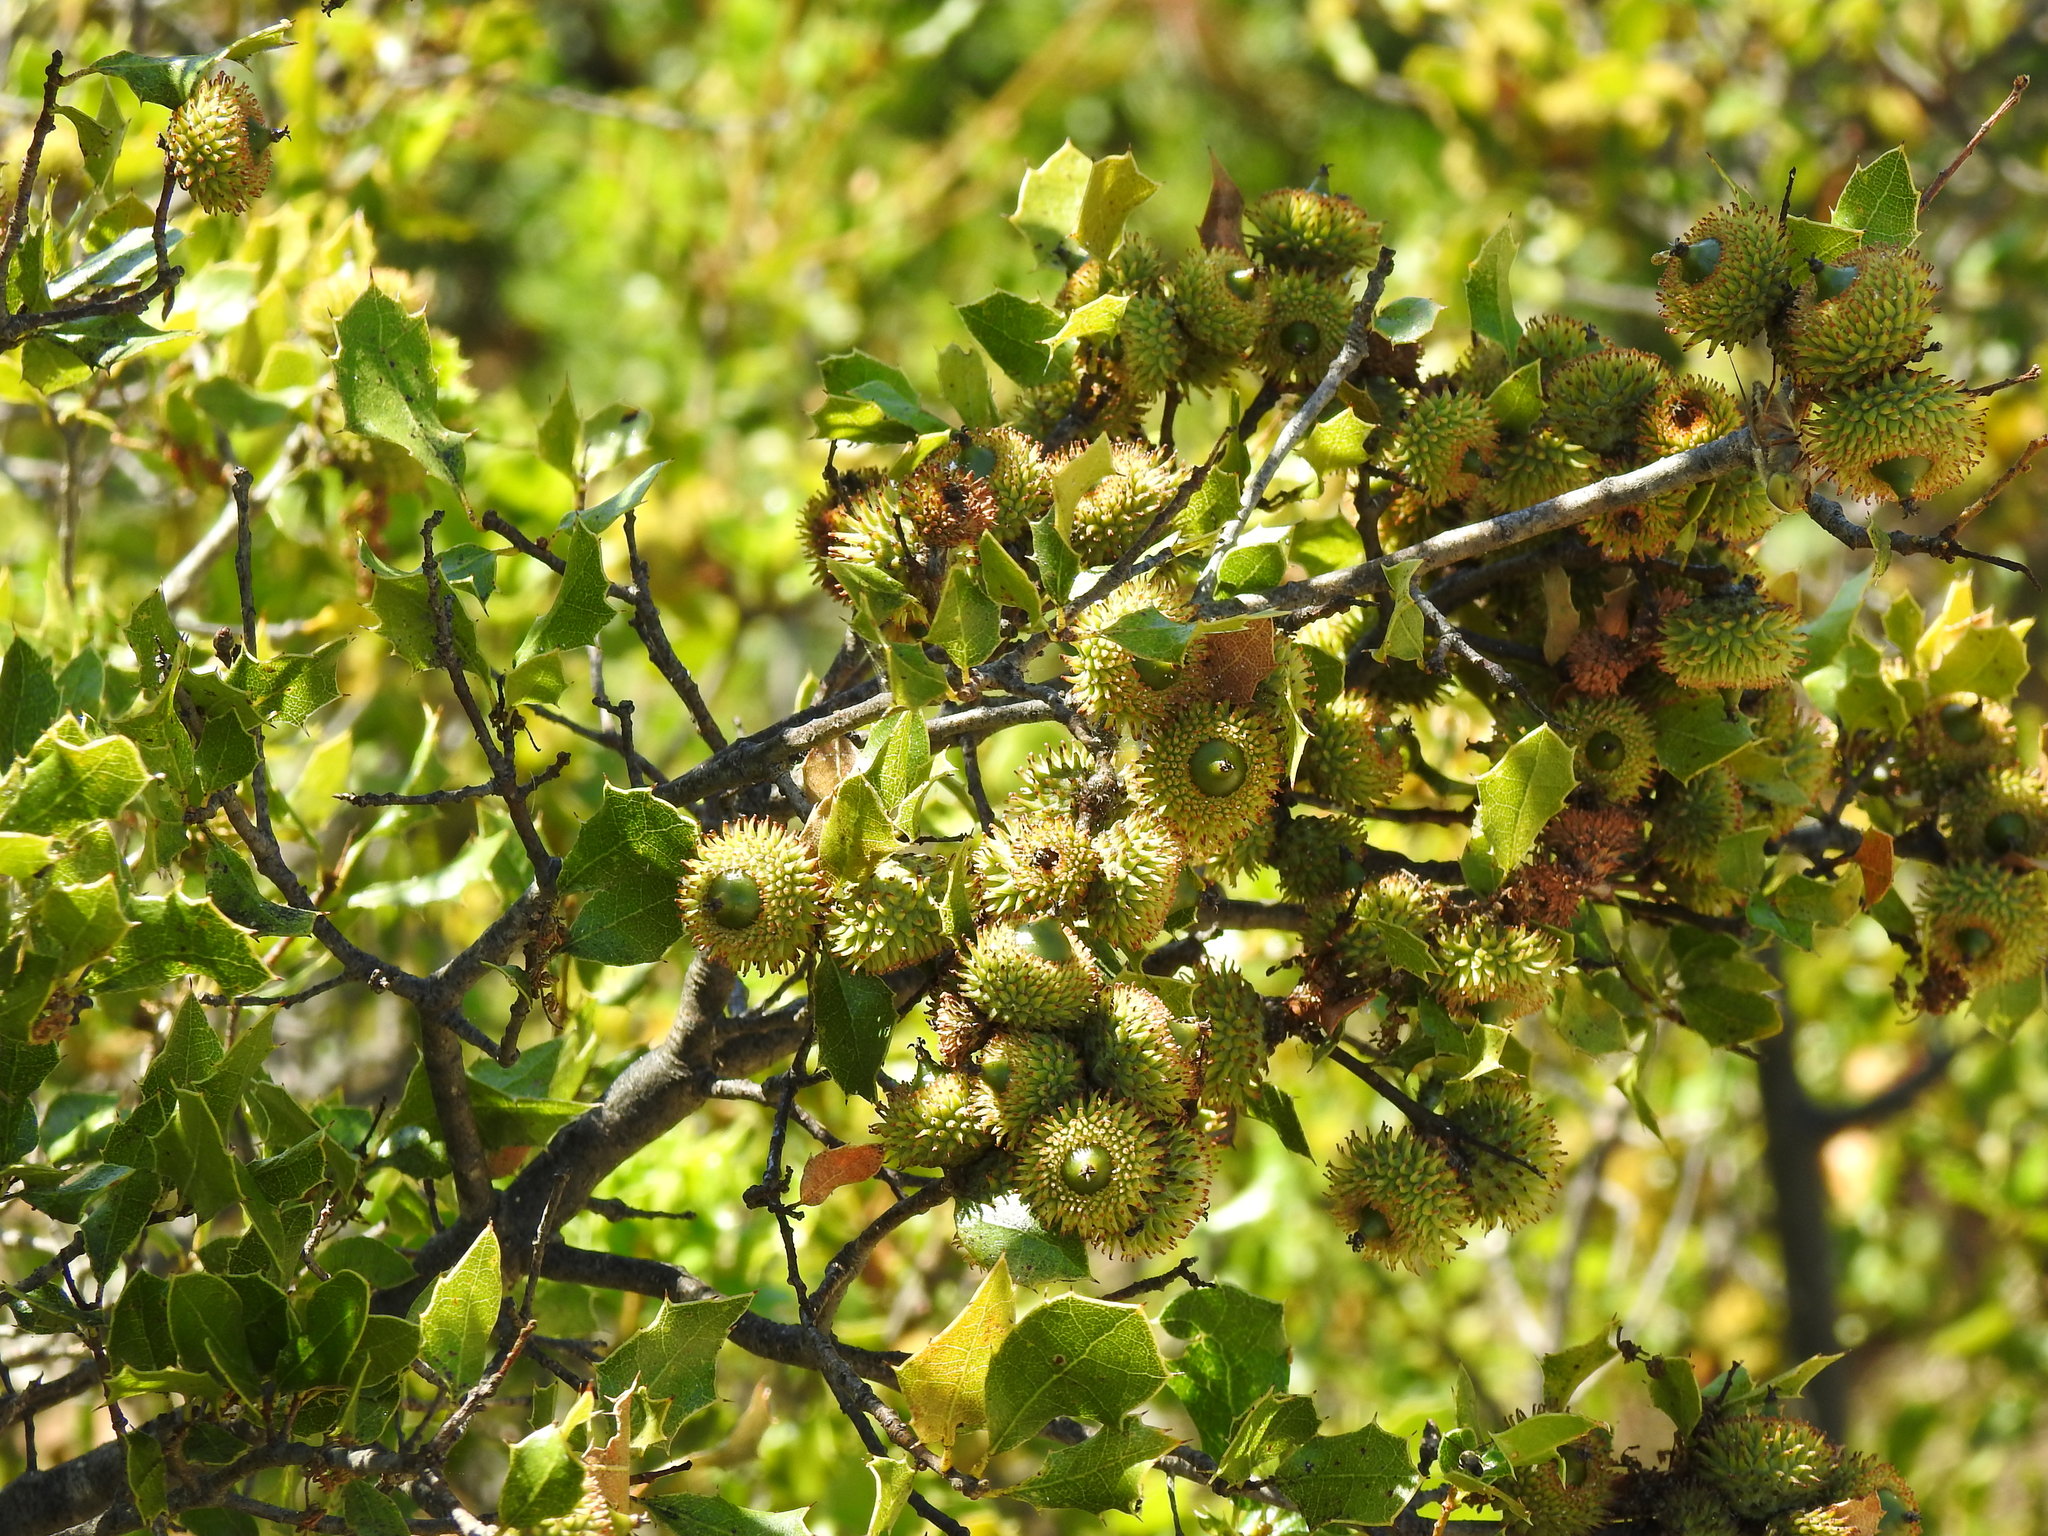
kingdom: Plantae
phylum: Tracheophyta
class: Magnoliopsida
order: Fagales
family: Fagaceae
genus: Quercus
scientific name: Quercus coccifera
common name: Kermes oak
